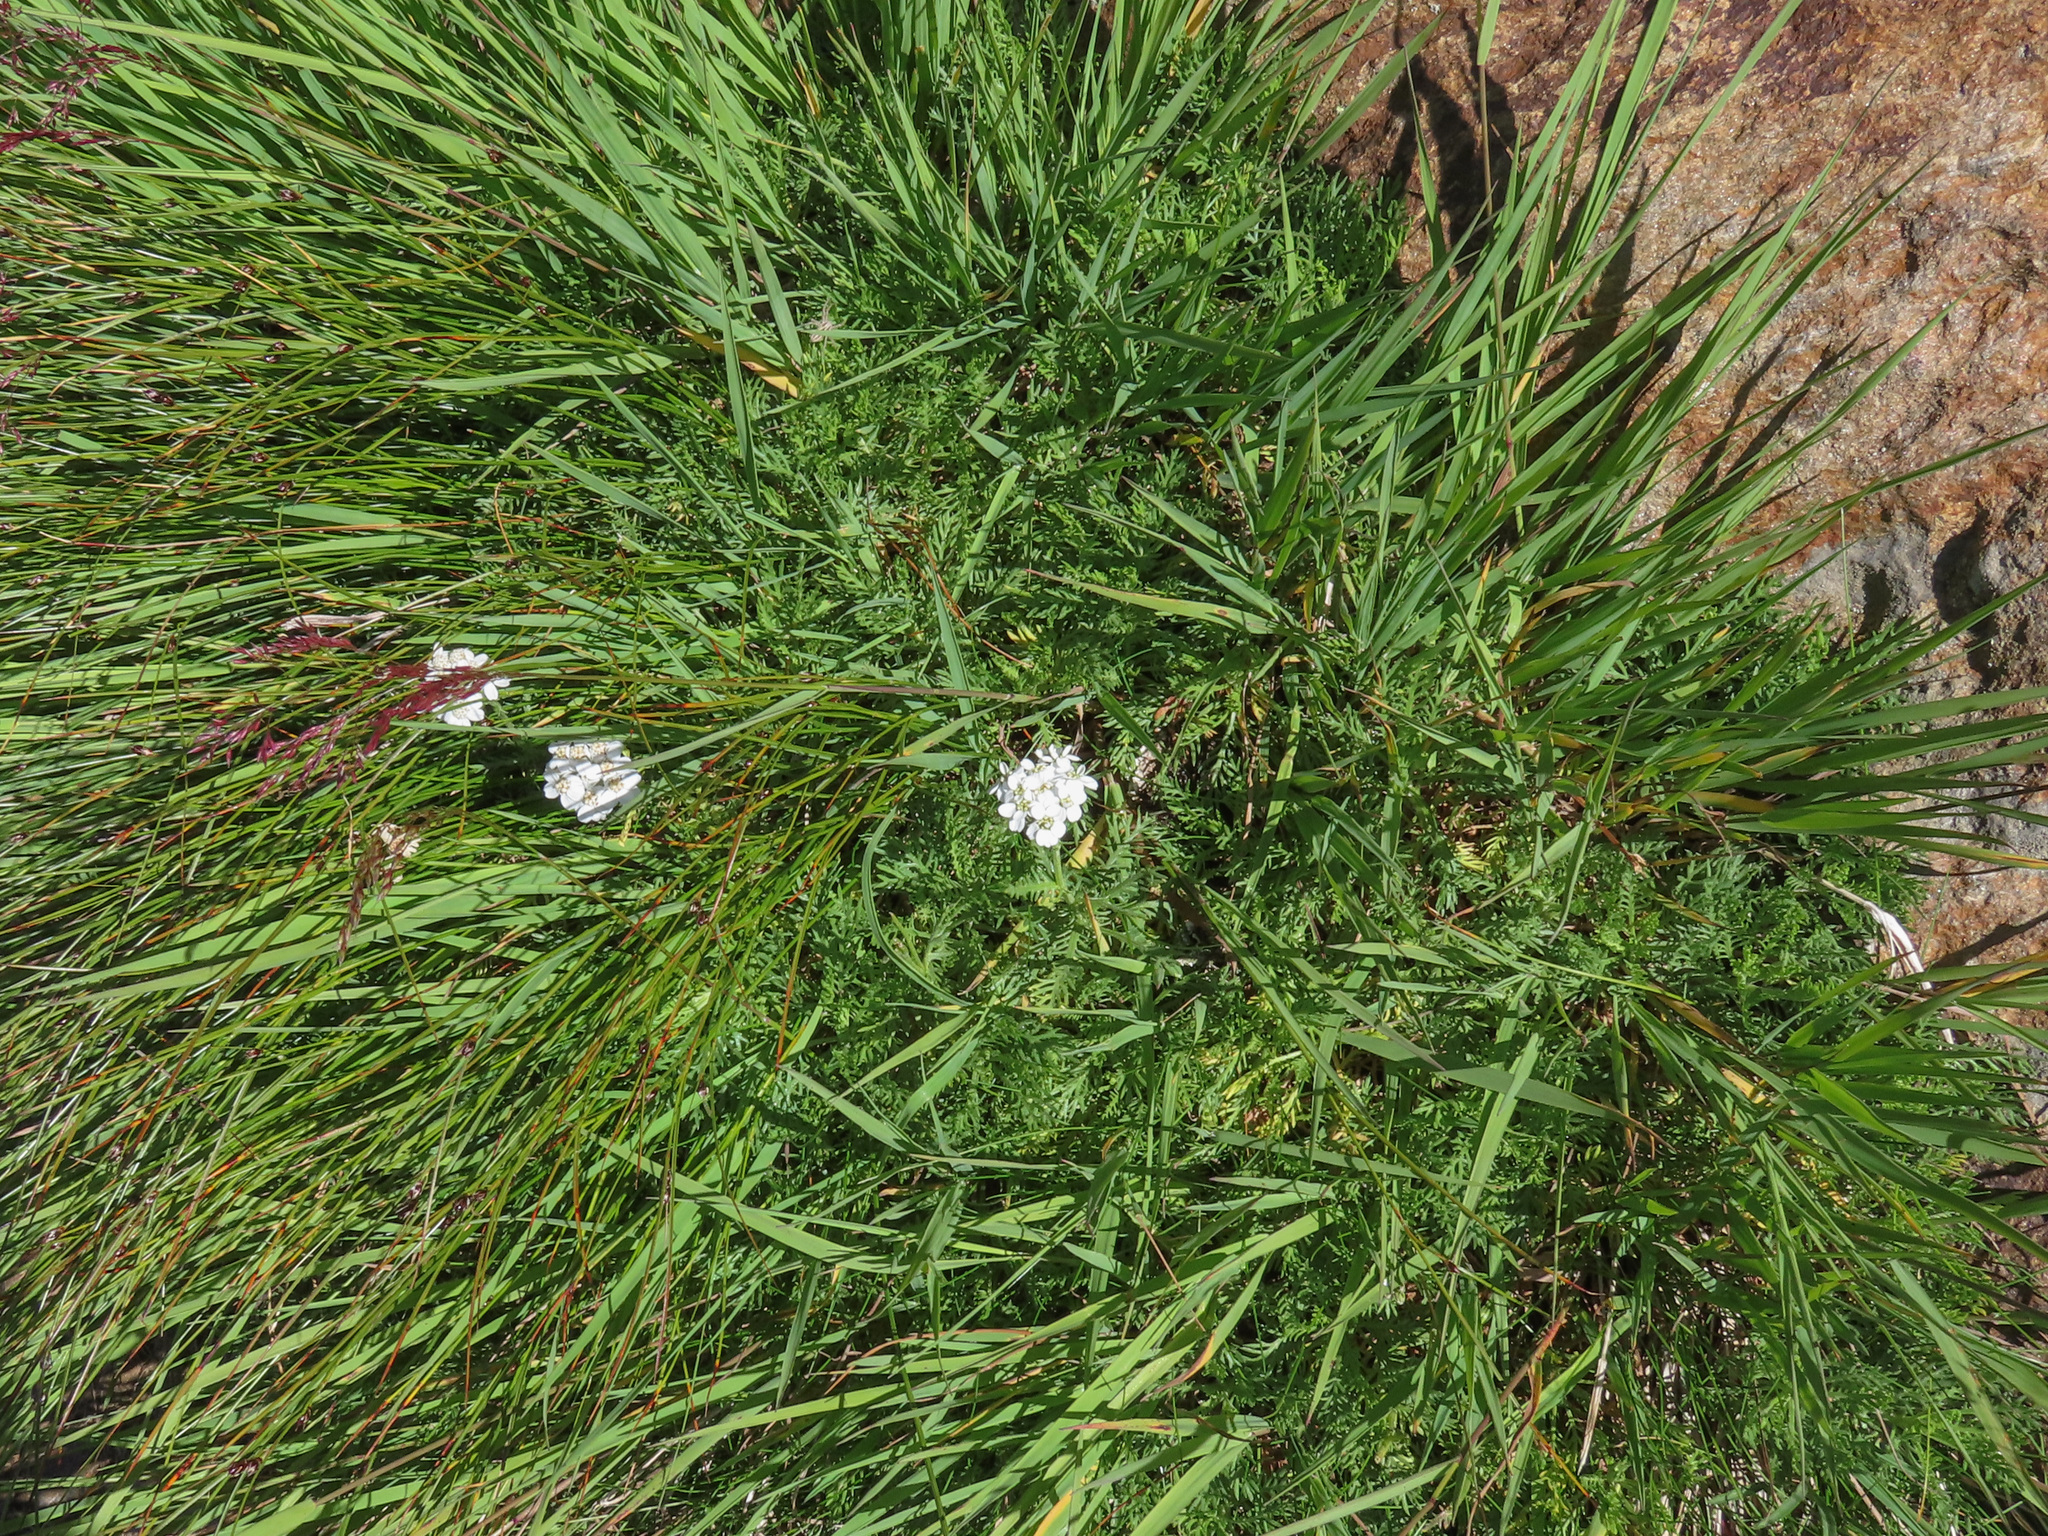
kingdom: Plantae
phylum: Tracheophyta
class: Magnoliopsida
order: Asterales
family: Asteraceae
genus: Achillea
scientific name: Achillea erba-rotta
